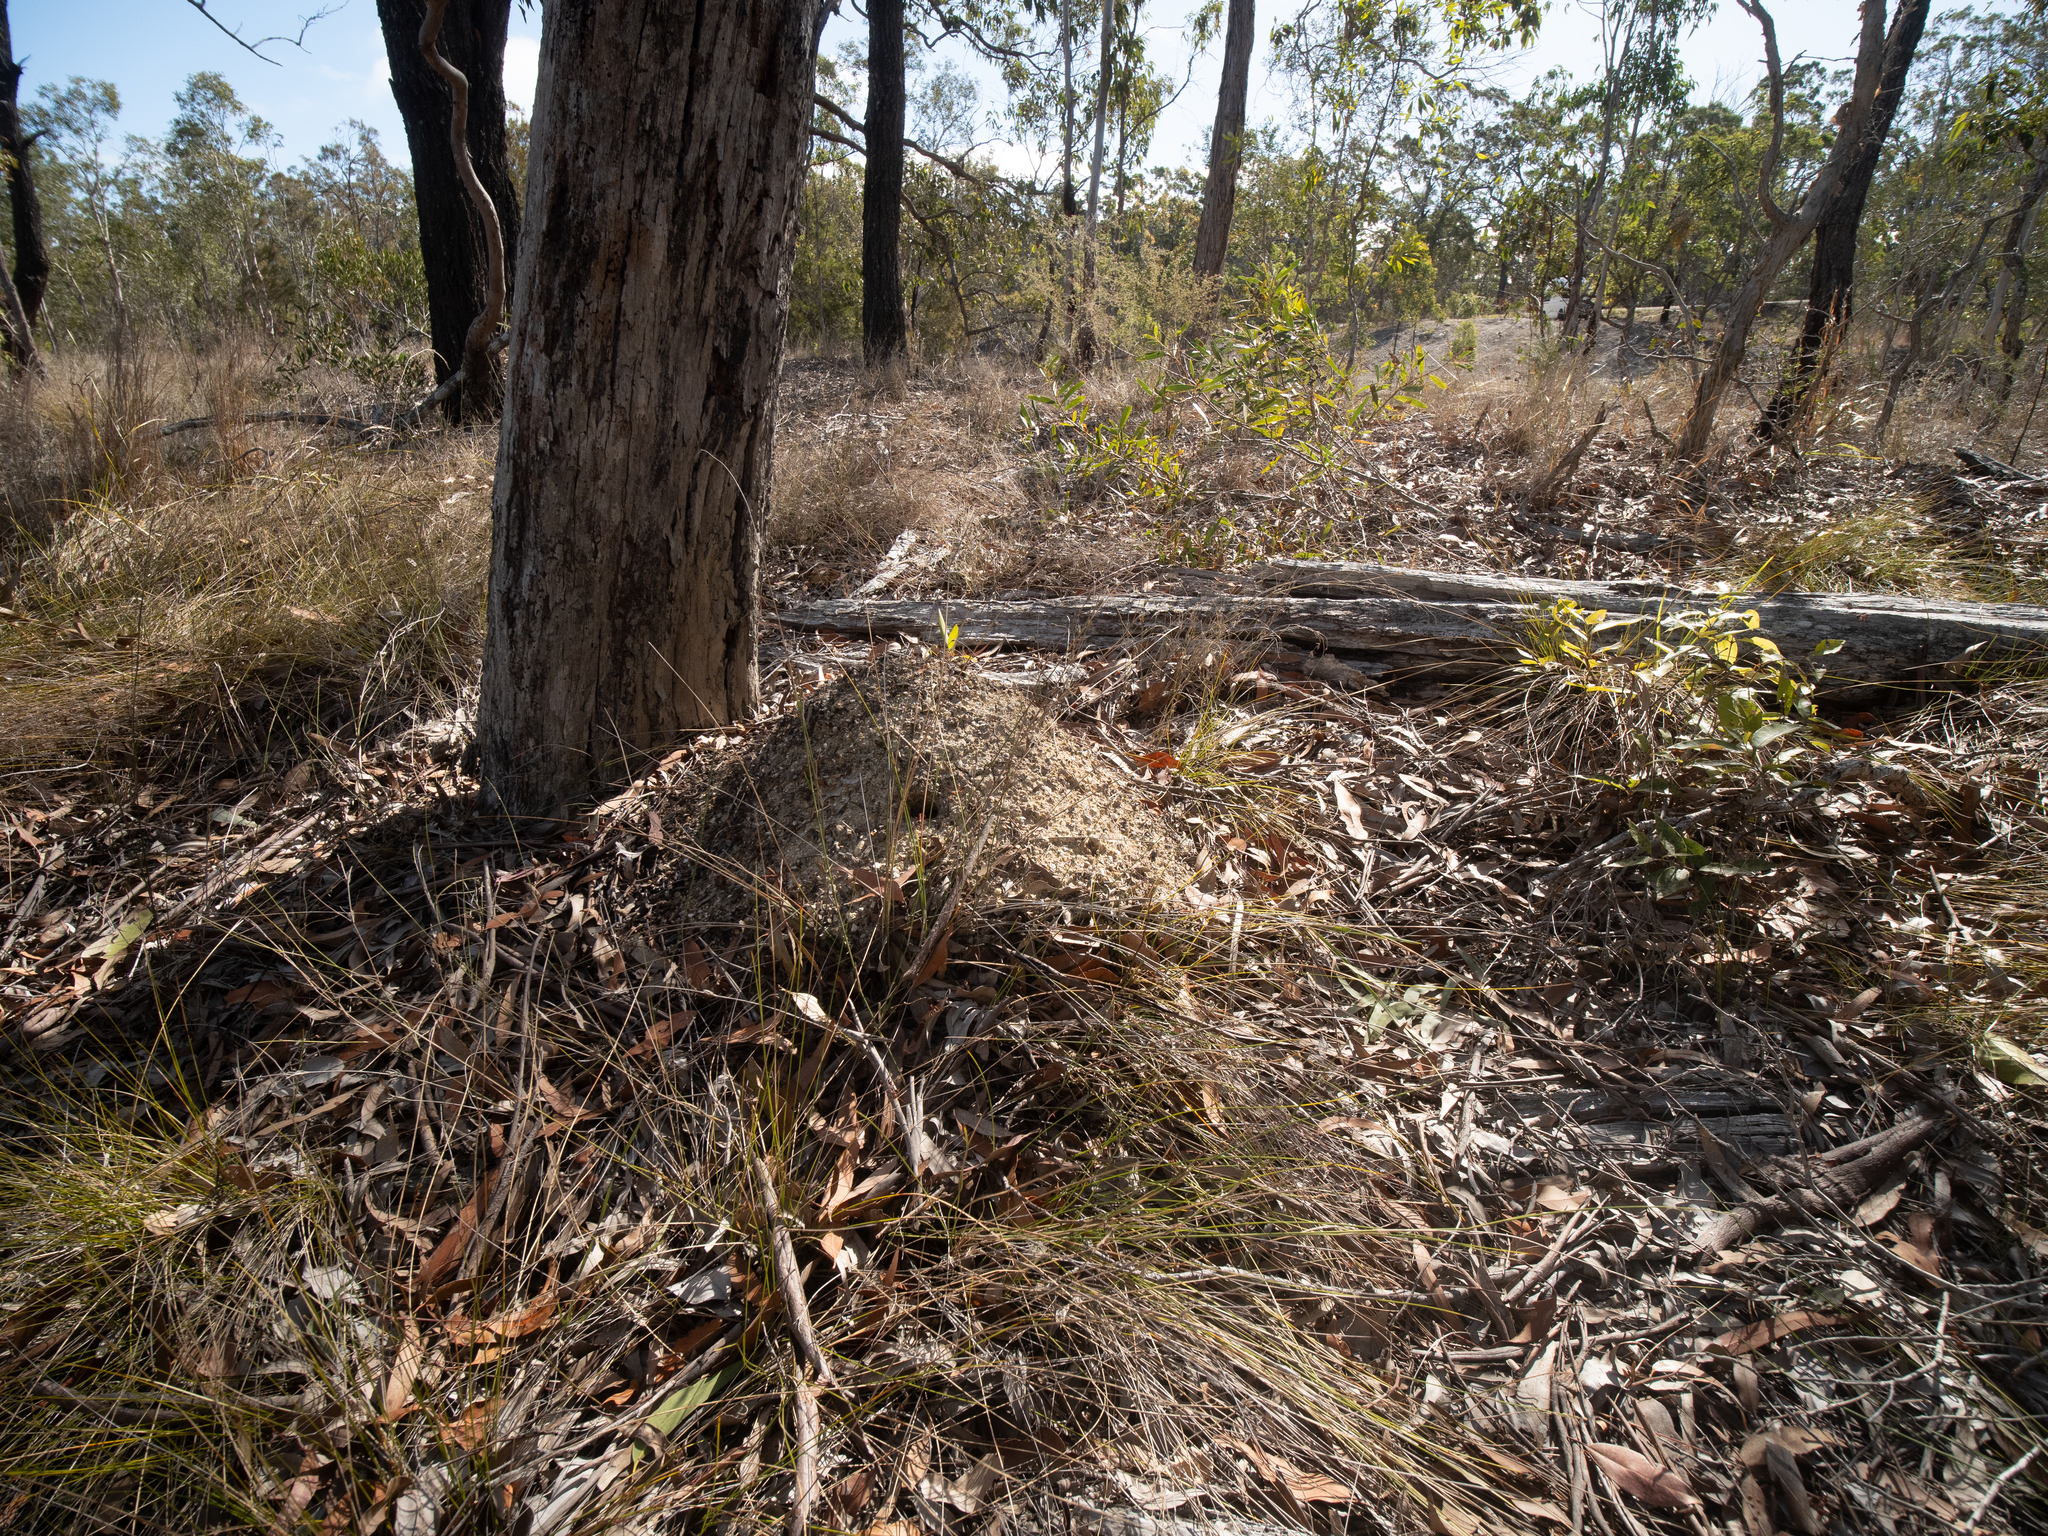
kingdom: Animalia
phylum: Arthropoda
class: Insecta
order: Hymenoptera
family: Formicidae
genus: Myrmecia
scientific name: Myrmecia gulosa
